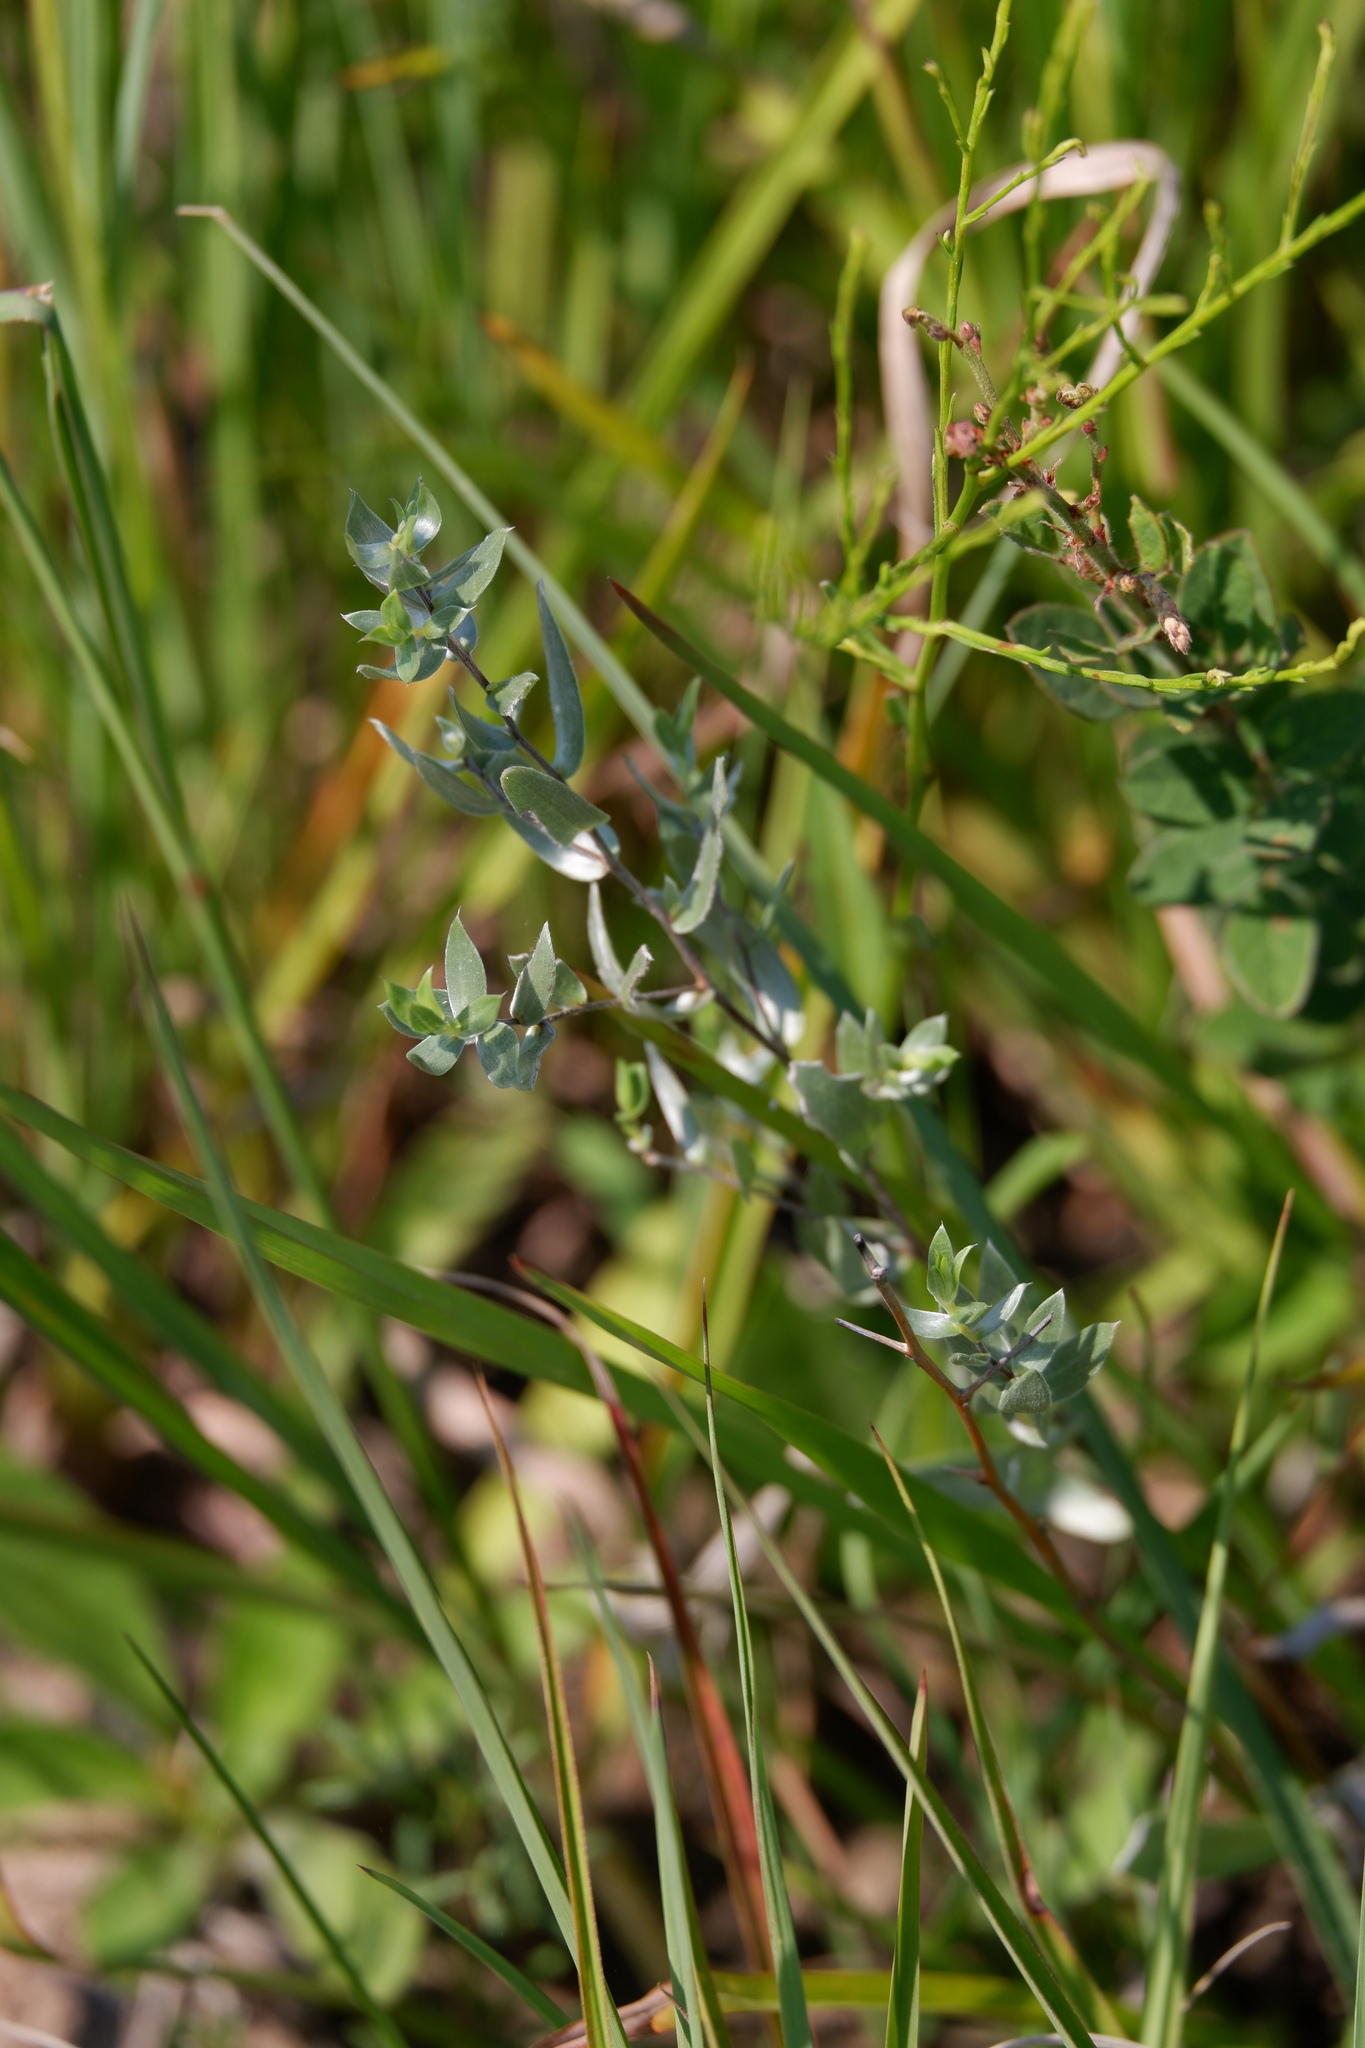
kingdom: Plantae
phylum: Tracheophyta
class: Magnoliopsida
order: Asterales
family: Asteraceae
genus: Symphyotrichum
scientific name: Symphyotrichum sericeum
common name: Silky aster
